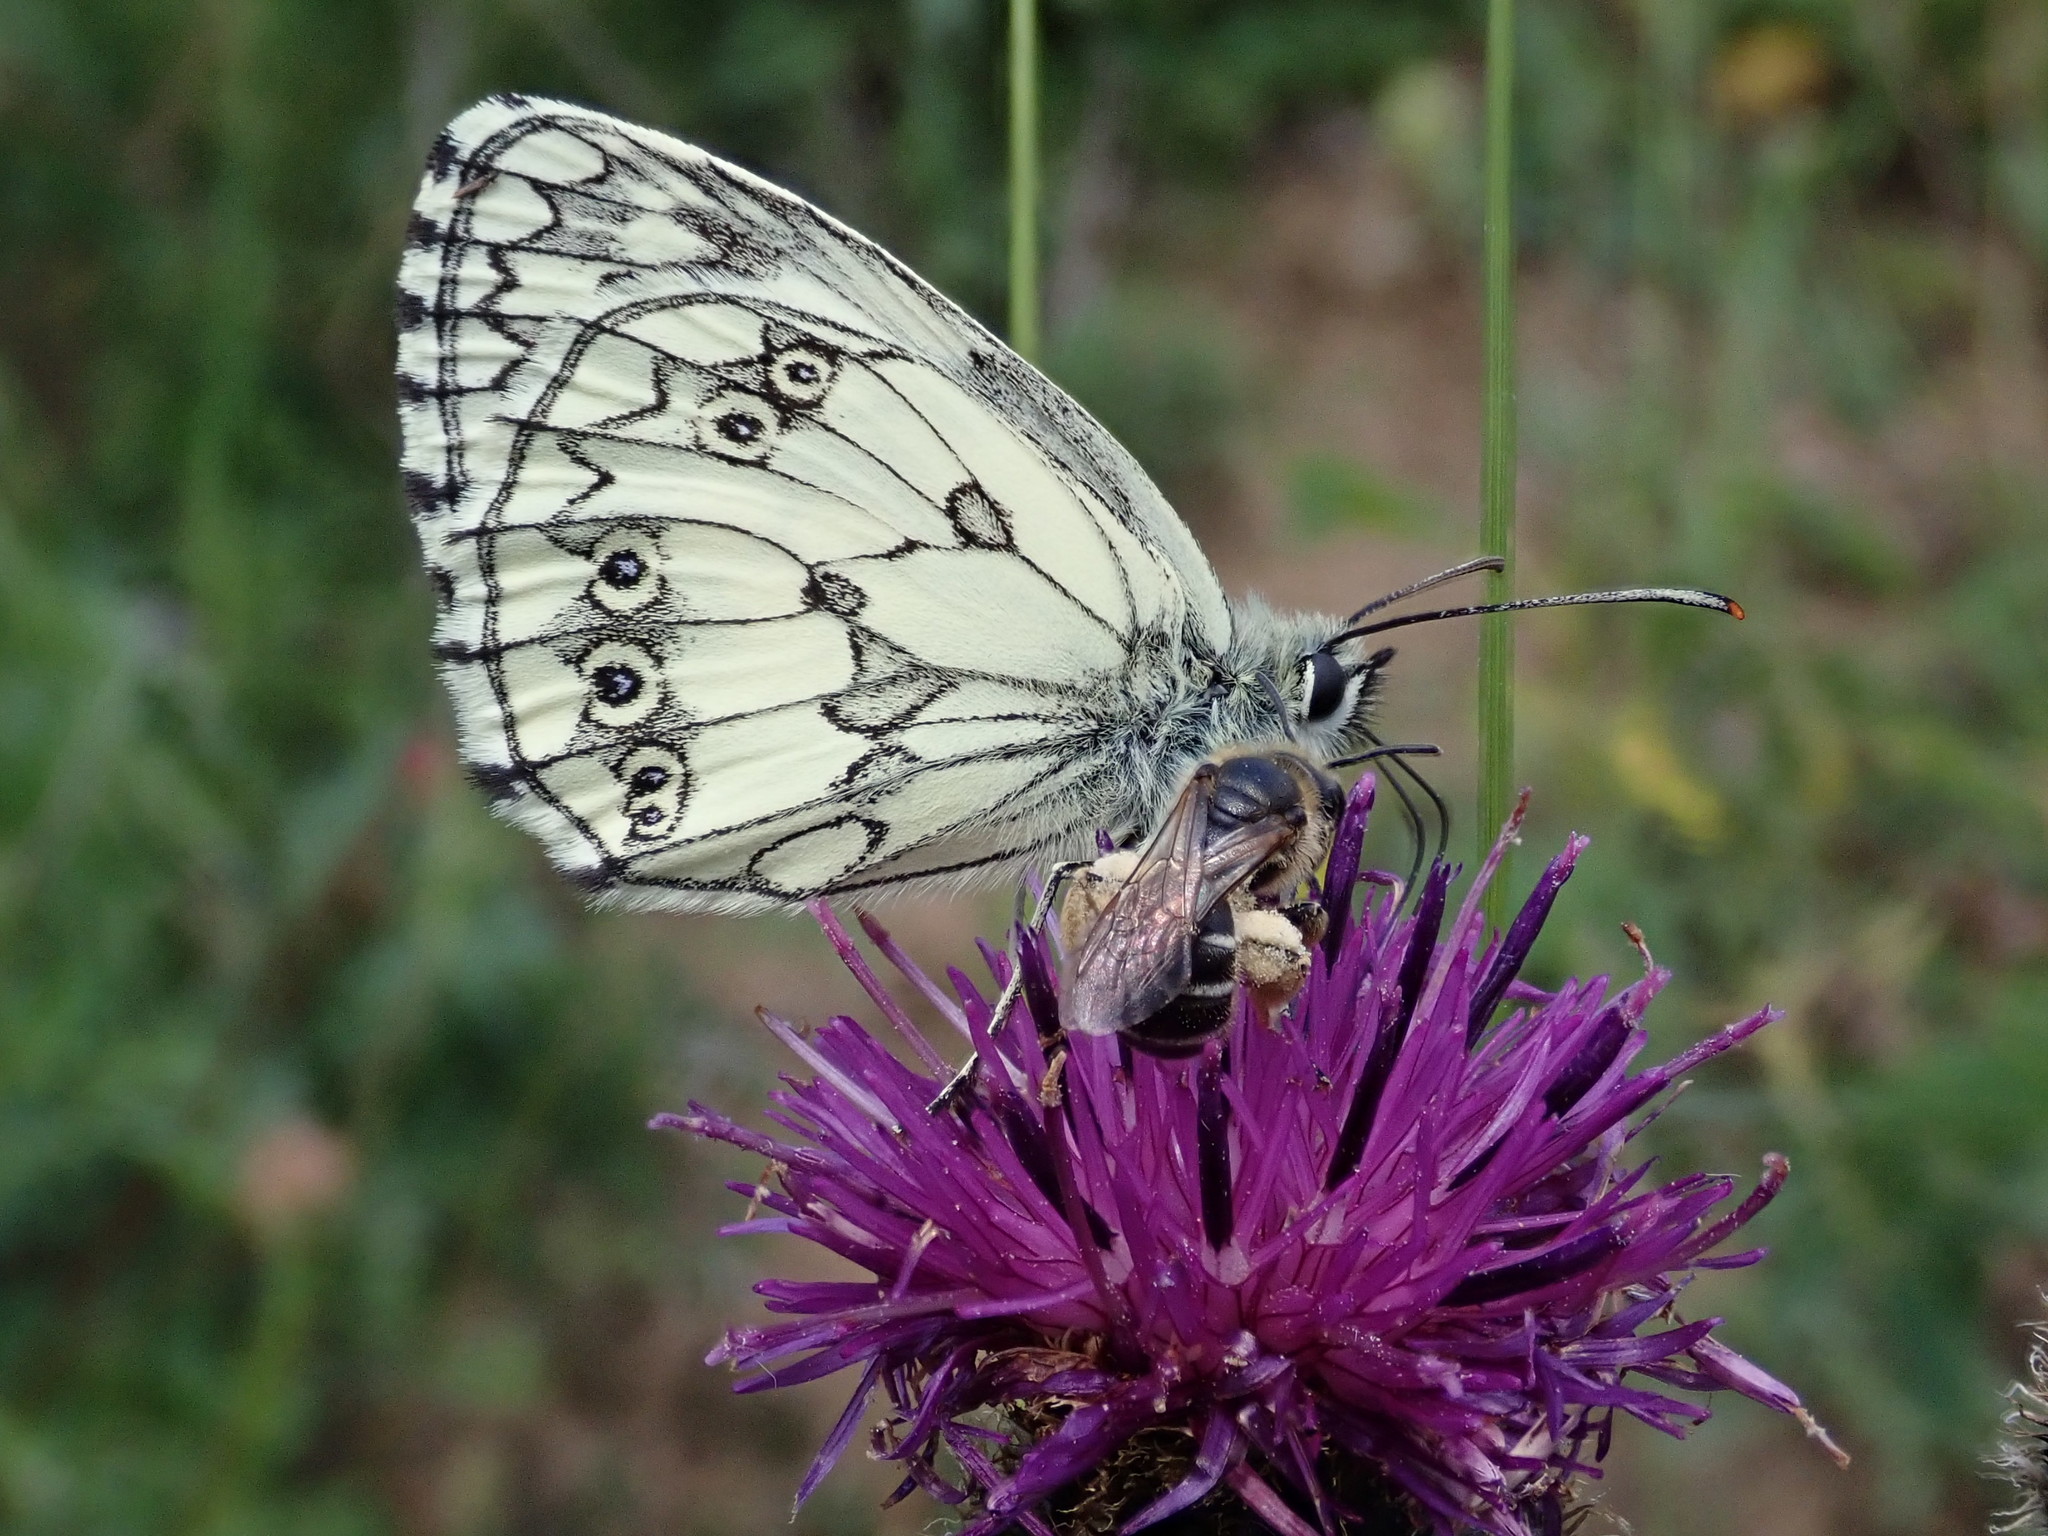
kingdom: Animalia
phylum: Arthropoda
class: Insecta
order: Lepidoptera
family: Nymphalidae
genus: Melanargia
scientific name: Melanargia galathea
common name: Marbled white
